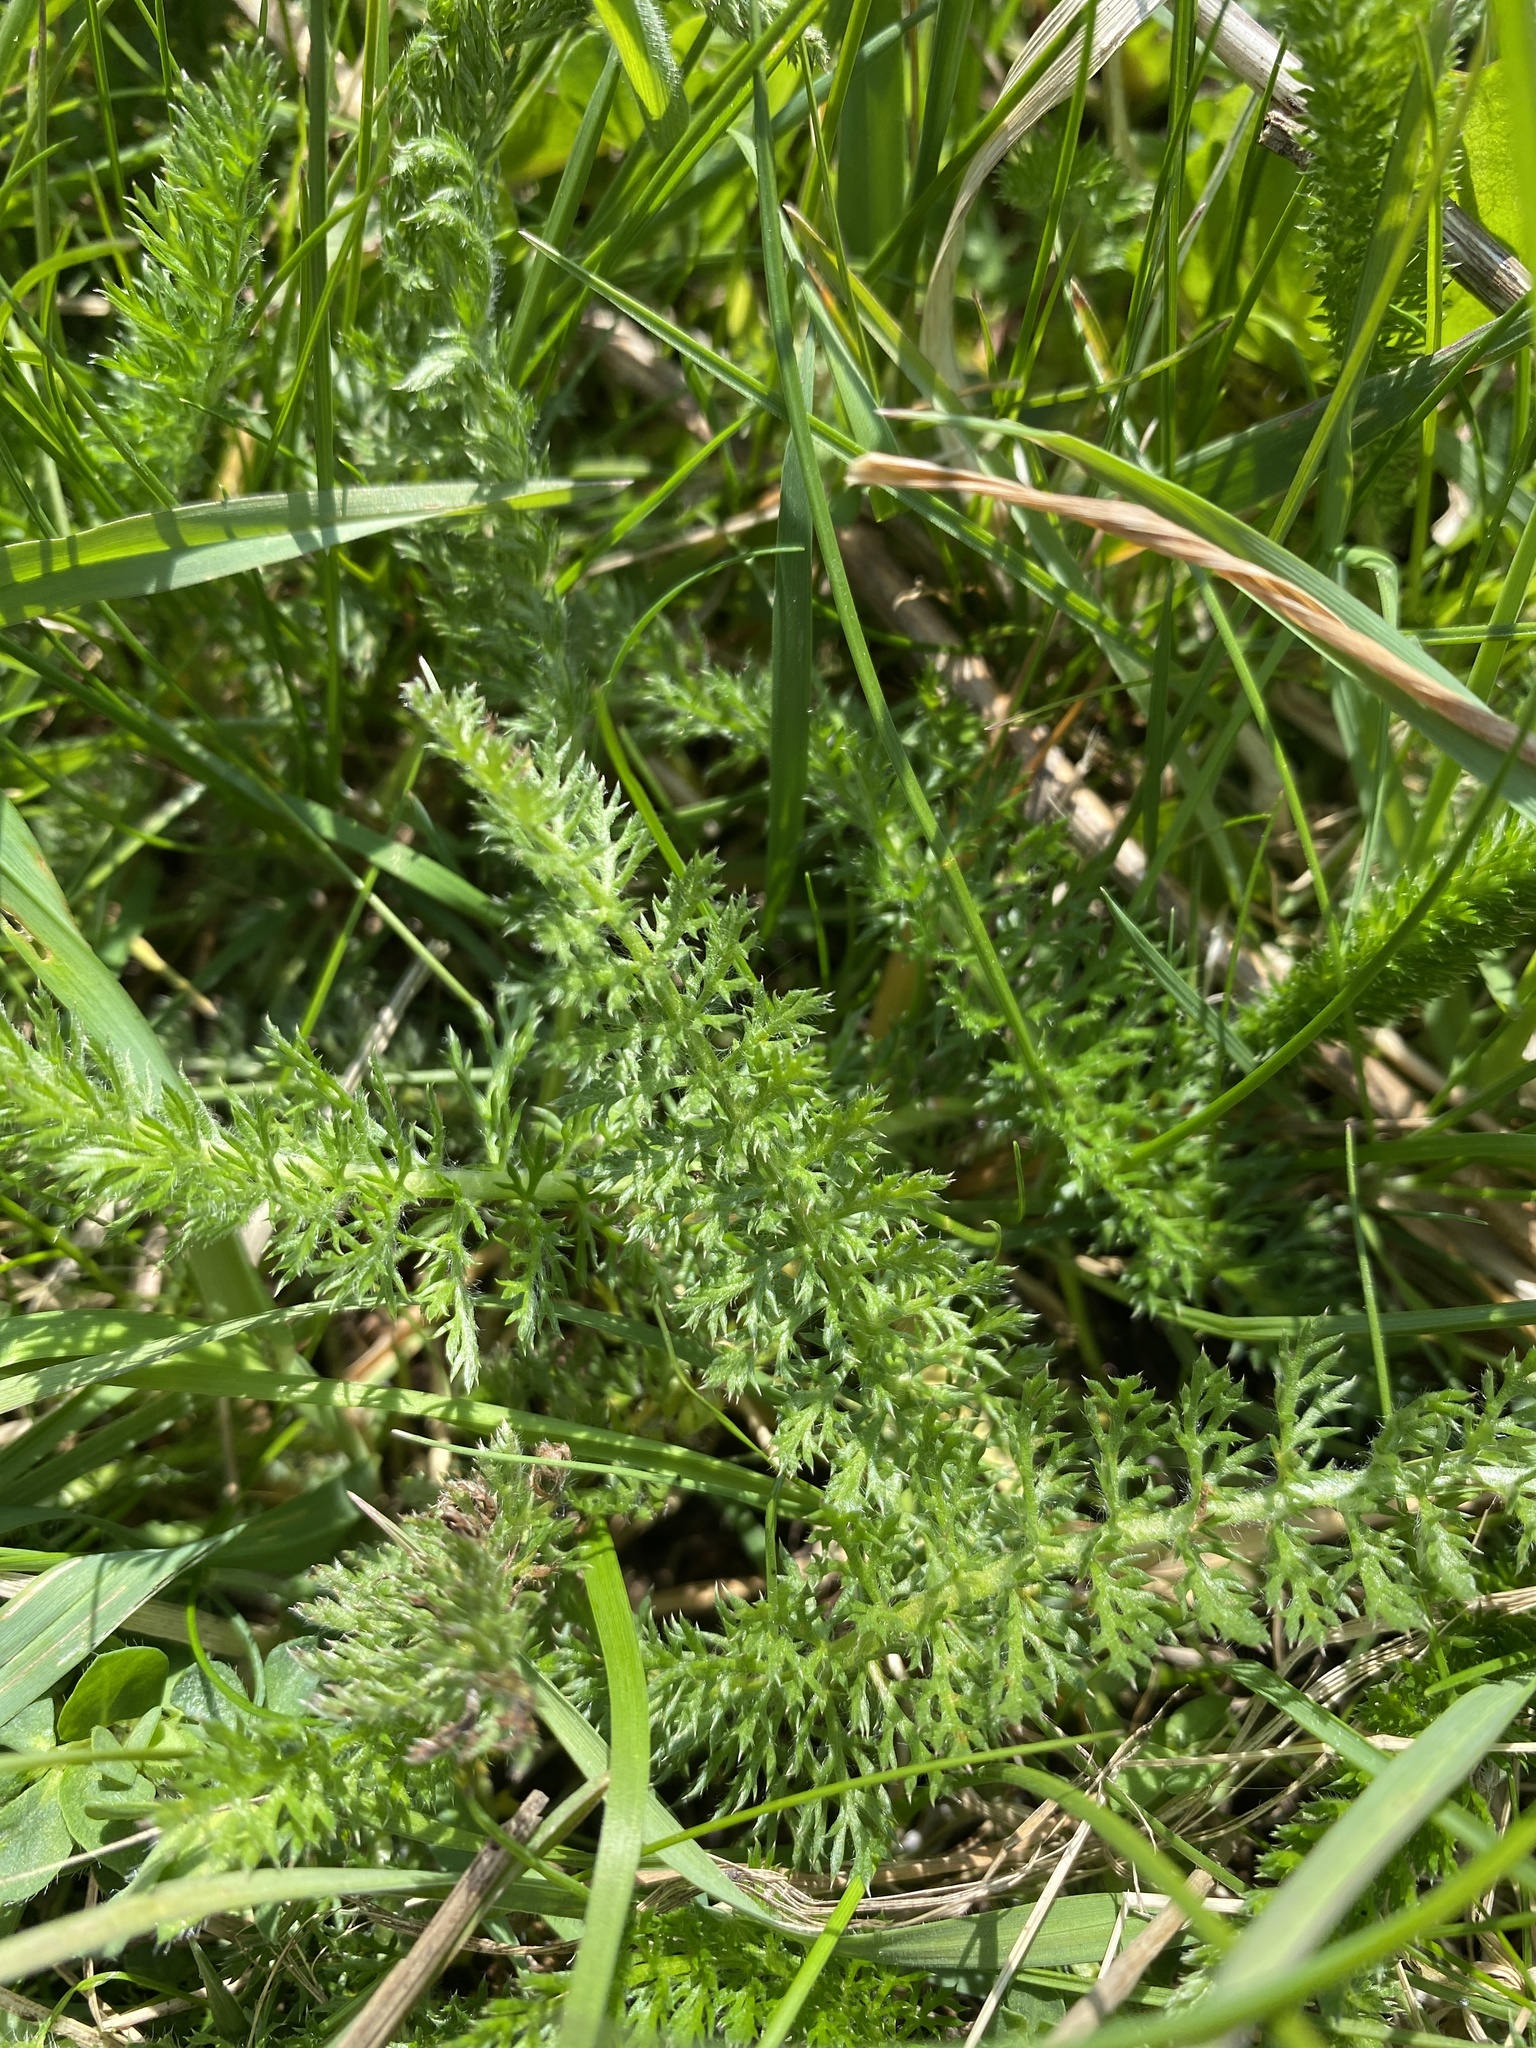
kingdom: Plantae
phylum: Tracheophyta
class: Magnoliopsida
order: Asterales
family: Asteraceae
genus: Achillea
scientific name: Achillea millefolium
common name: Yarrow
